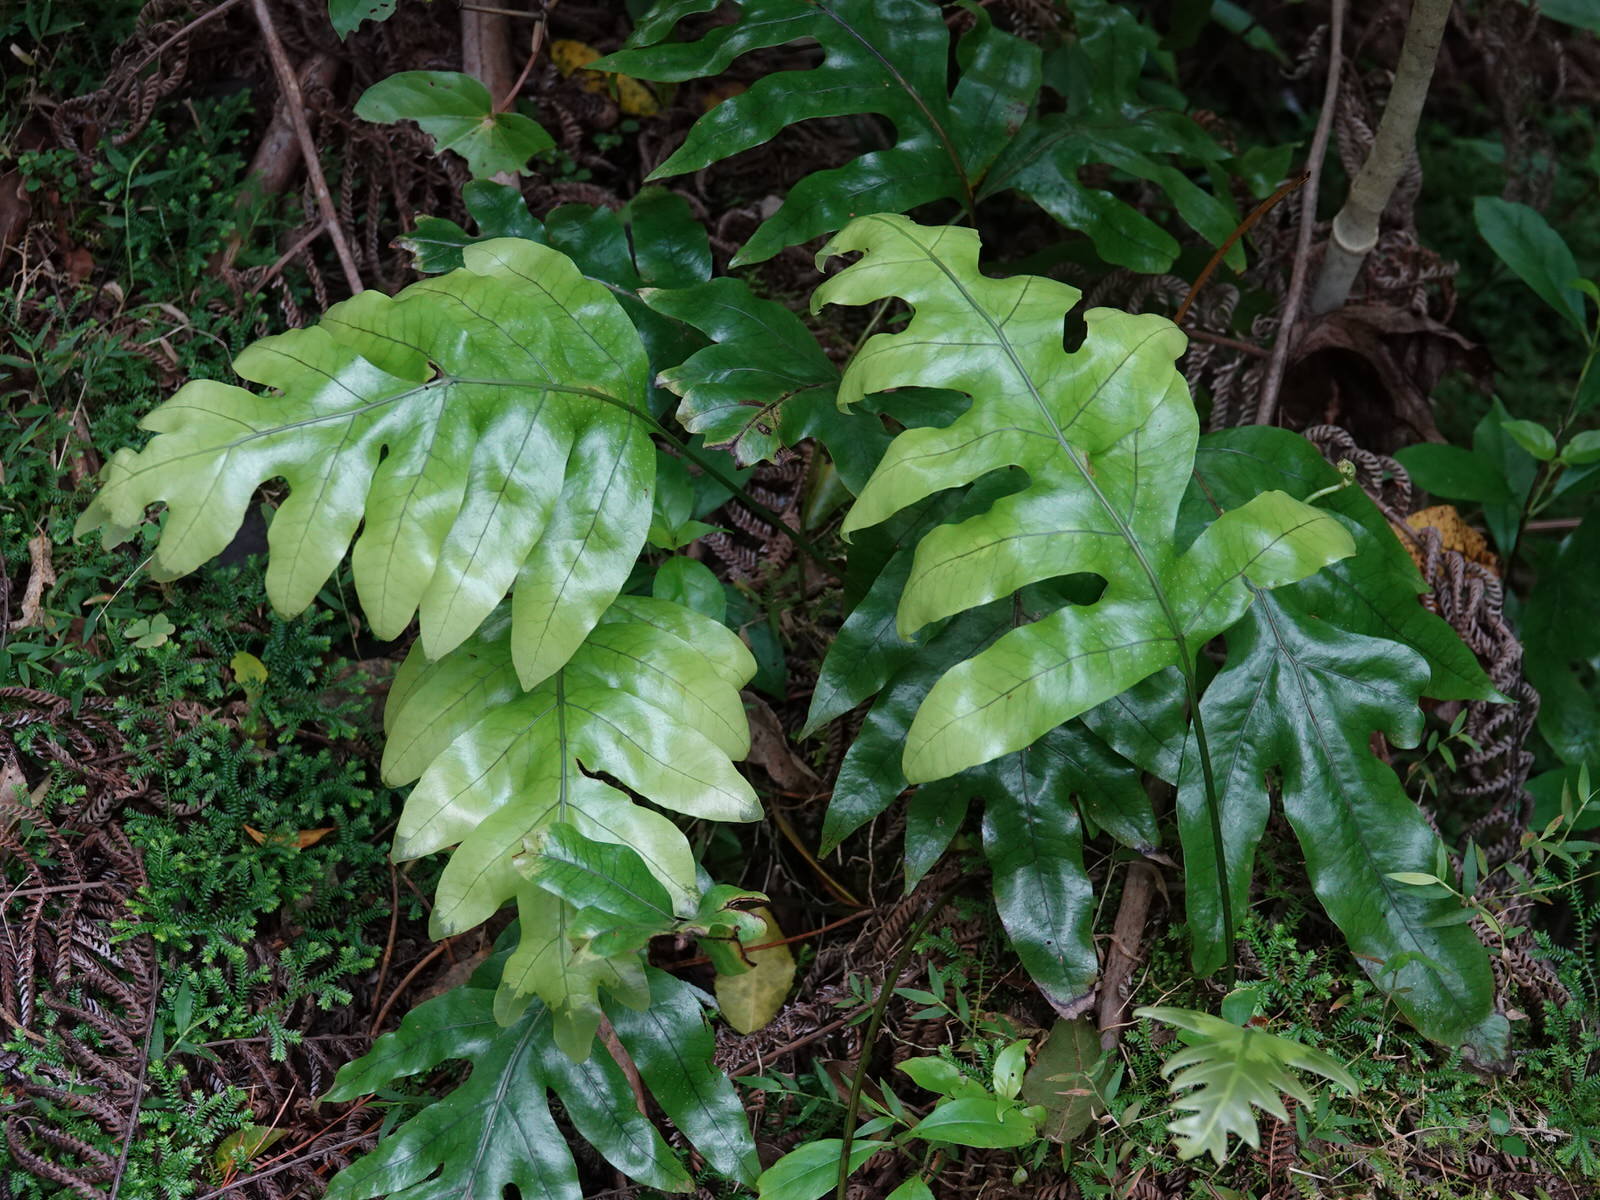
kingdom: Plantae
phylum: Tracheophyta
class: Polypodiopsida
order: Polypodiales
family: Polypodiaceae
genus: Lecanopteris
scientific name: Lecanopteris pustulata
